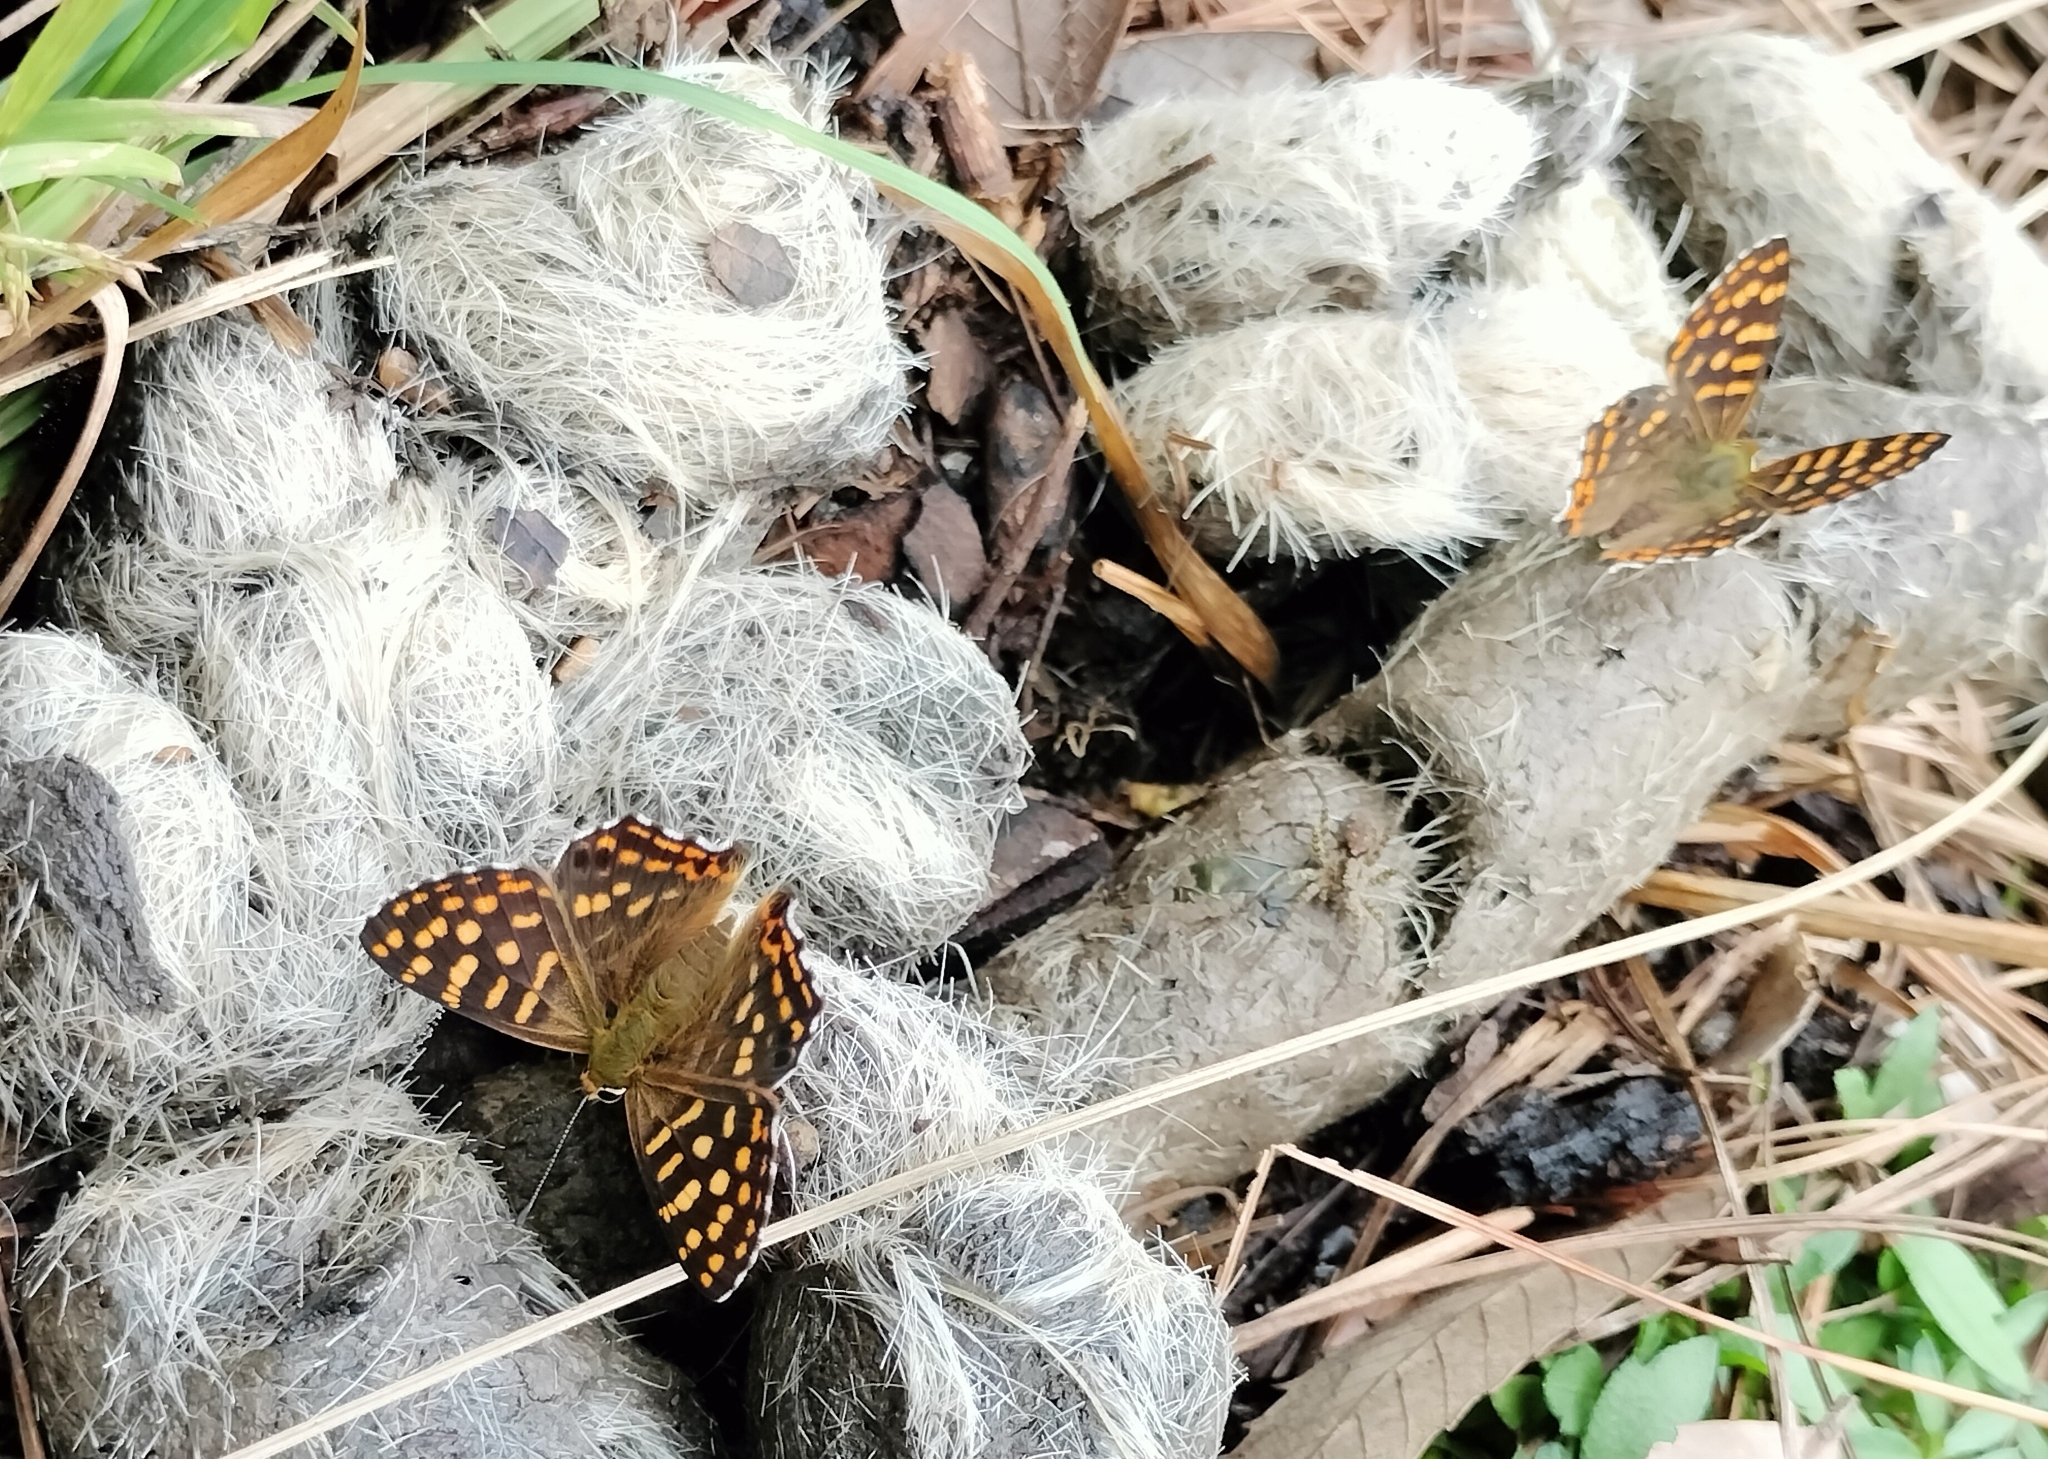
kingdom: Animalia
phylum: Arthropoda
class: Insecta
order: Lepidoptera
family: Lycaenidae
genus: Dodona
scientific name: Dodona durga
